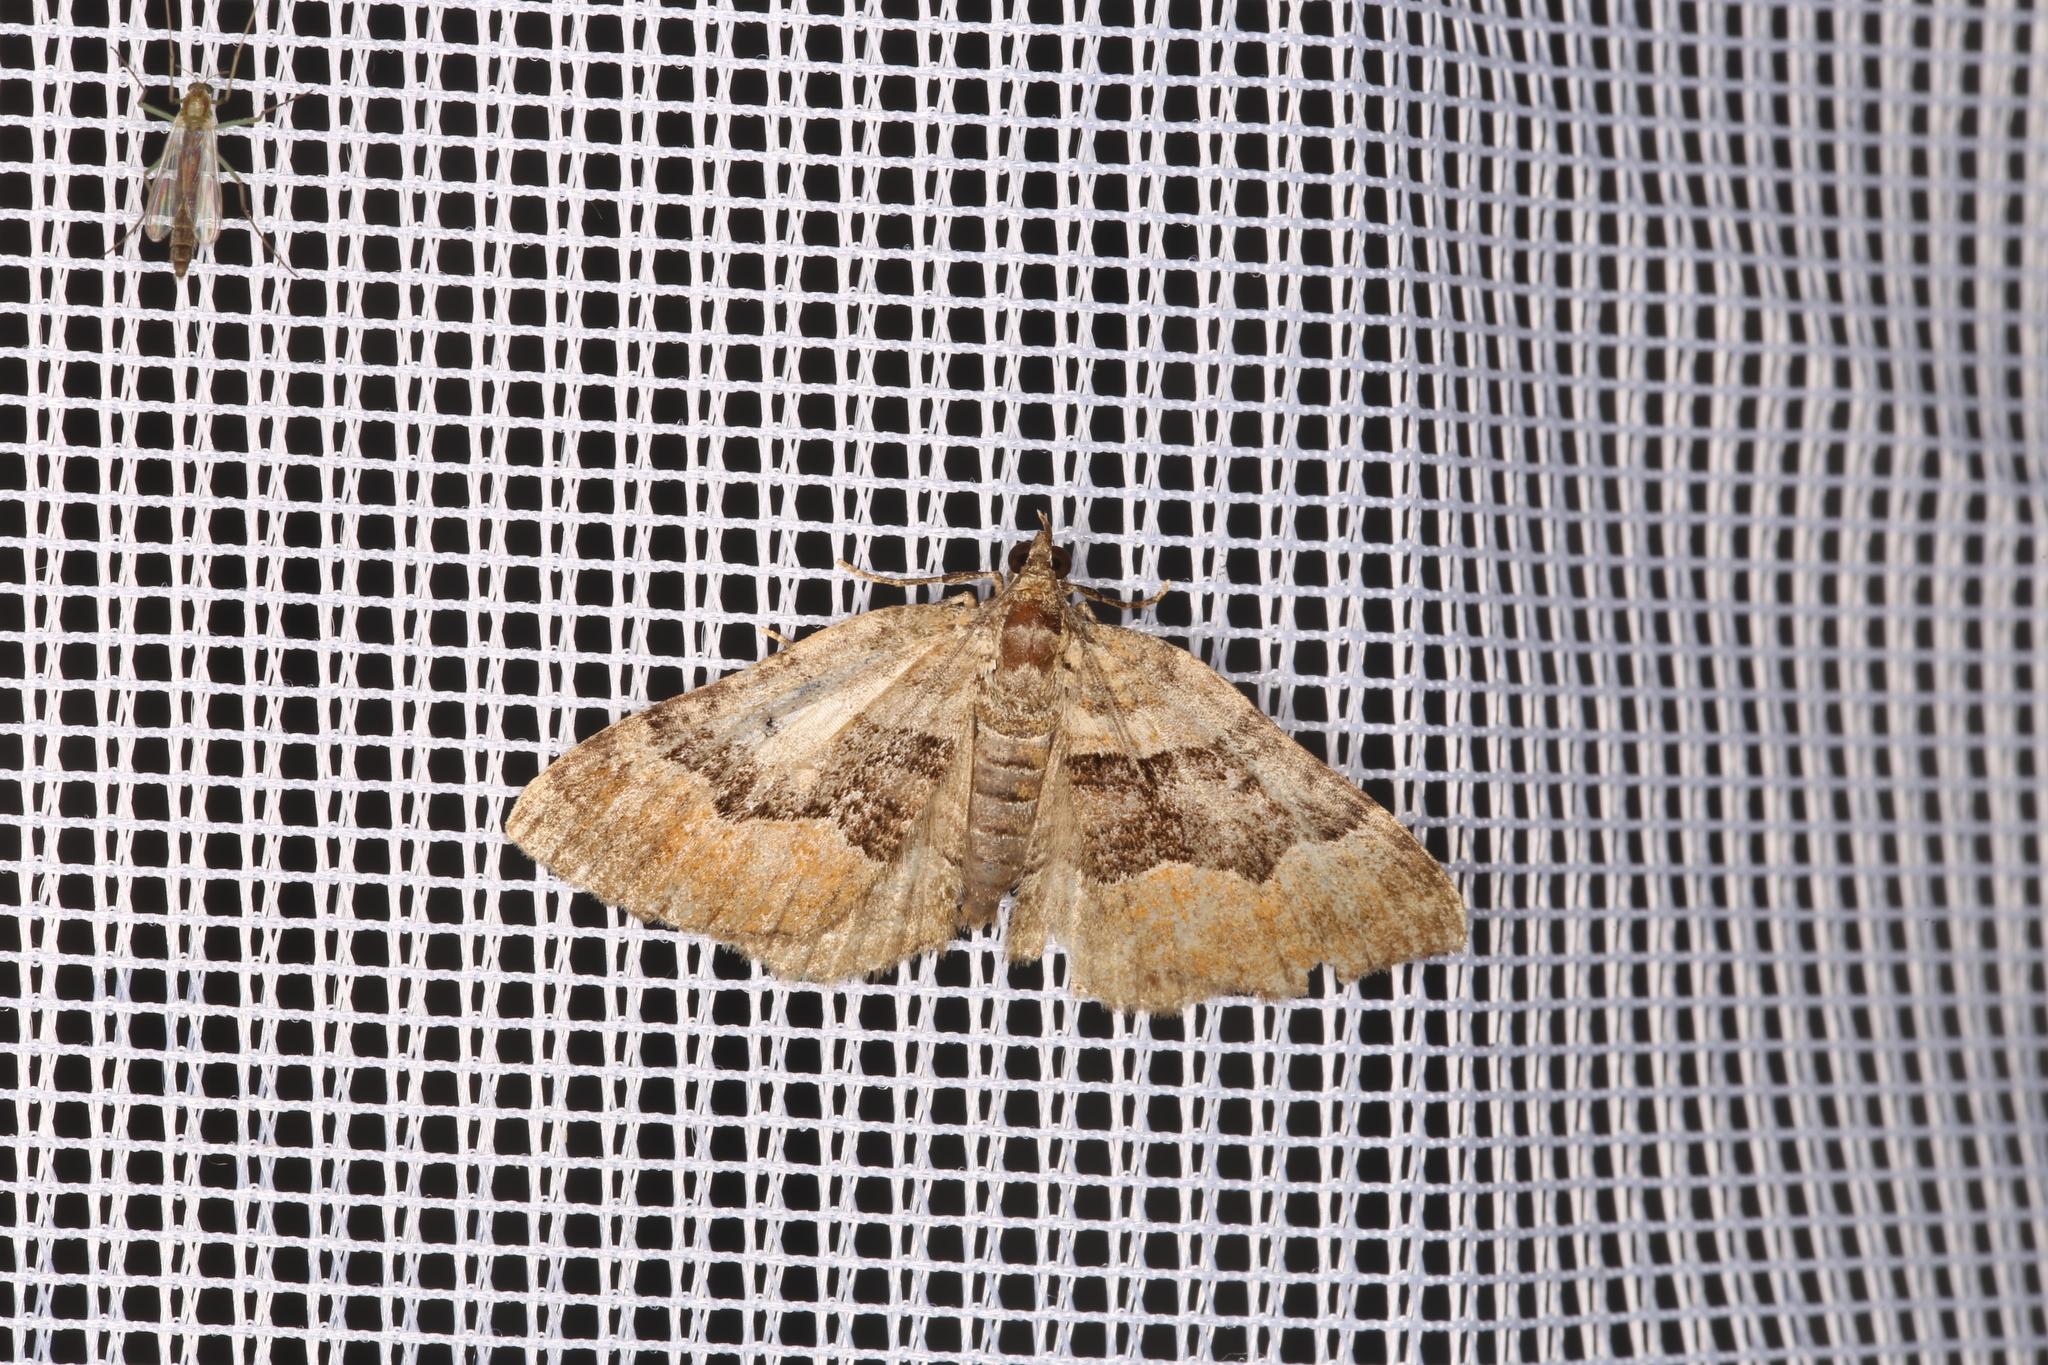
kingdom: Animalia
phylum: Arthropoda
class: Insecta
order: Lepidoptera
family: Geometridae
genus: Xanthorhoe
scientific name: Xanthorhoe quadrifasiata
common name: Large twin-spot carpet
